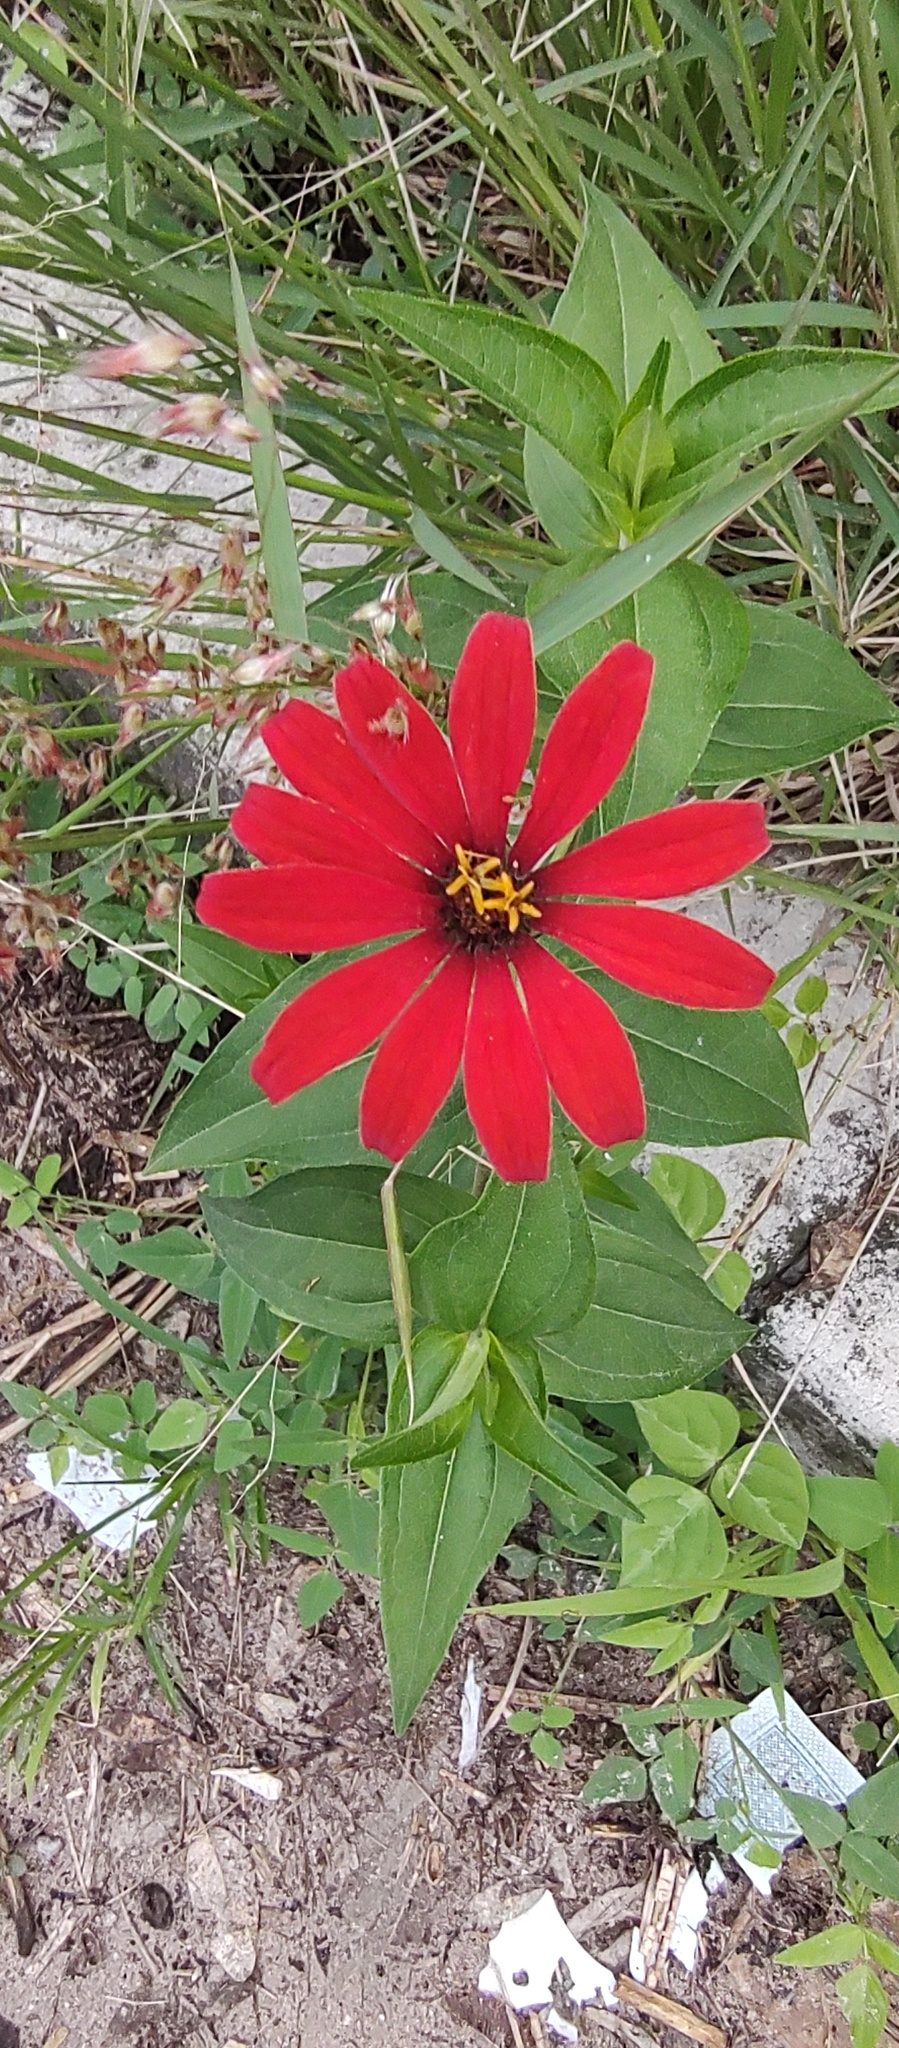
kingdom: Plantae
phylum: Tracheophyta
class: Magnoliopsida
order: Asterales
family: Asteraceae
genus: Zinnia
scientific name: Zinnia peruviana
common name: Peruvian zinnia
